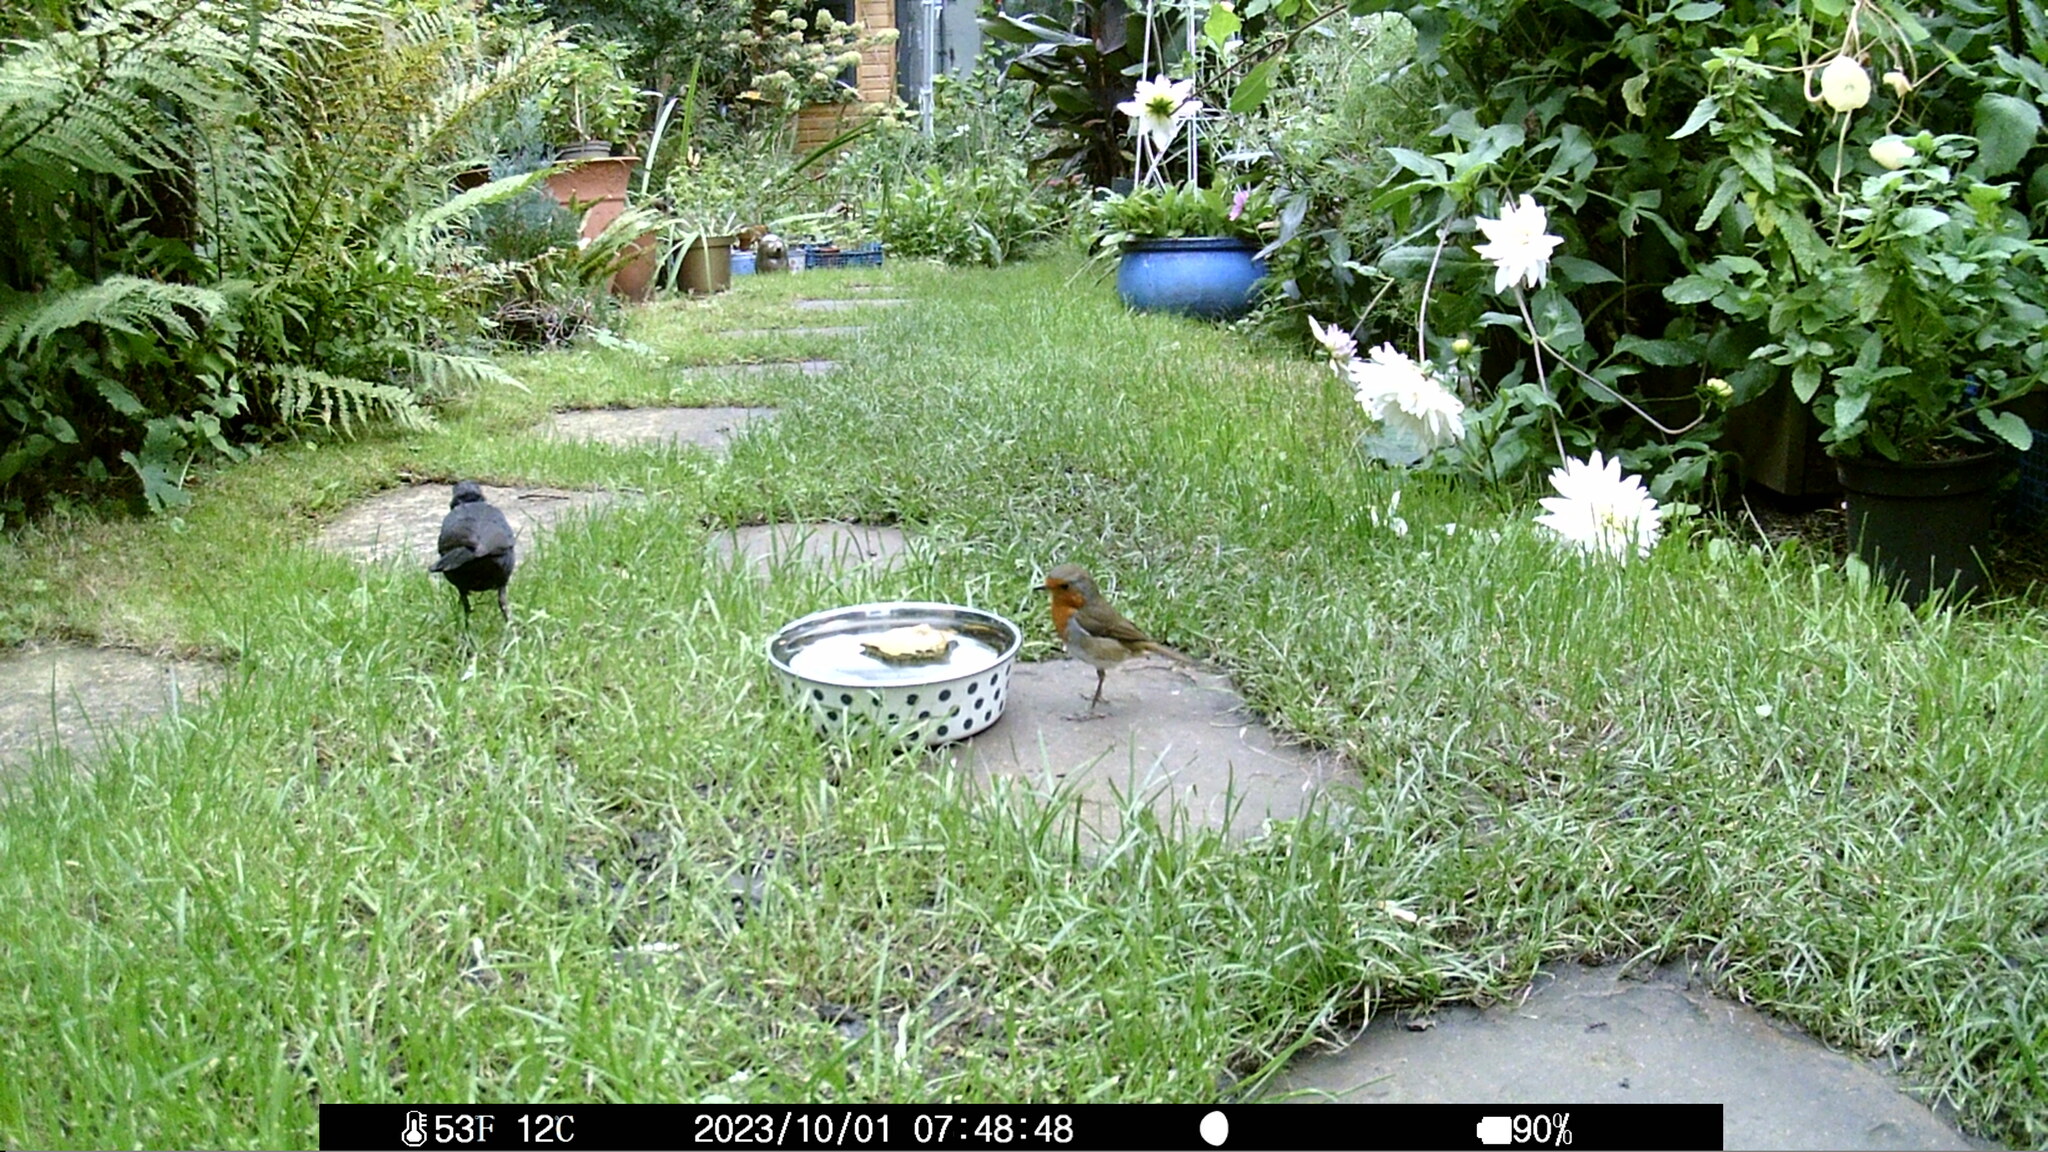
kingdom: Animalia
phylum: Chordata
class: Aves
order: Passeriformes
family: Muscicapidae
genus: Erithacus
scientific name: Erithacus rubecula
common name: European robin
